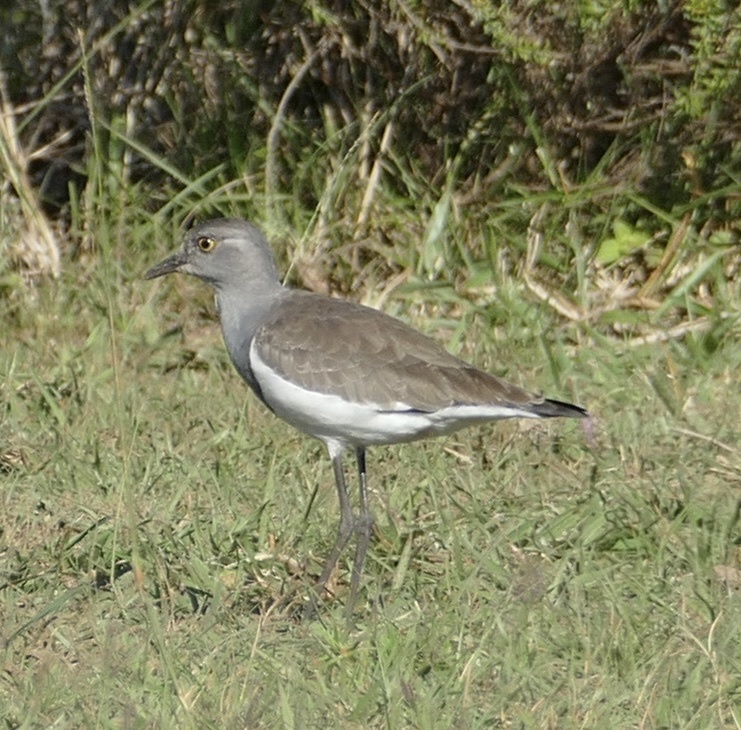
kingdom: Animalia
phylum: Chordata
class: Aves
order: Charadriiformes
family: Charadriidae
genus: Vanellus
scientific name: Vanellus lugubris
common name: Senegal lapwing
